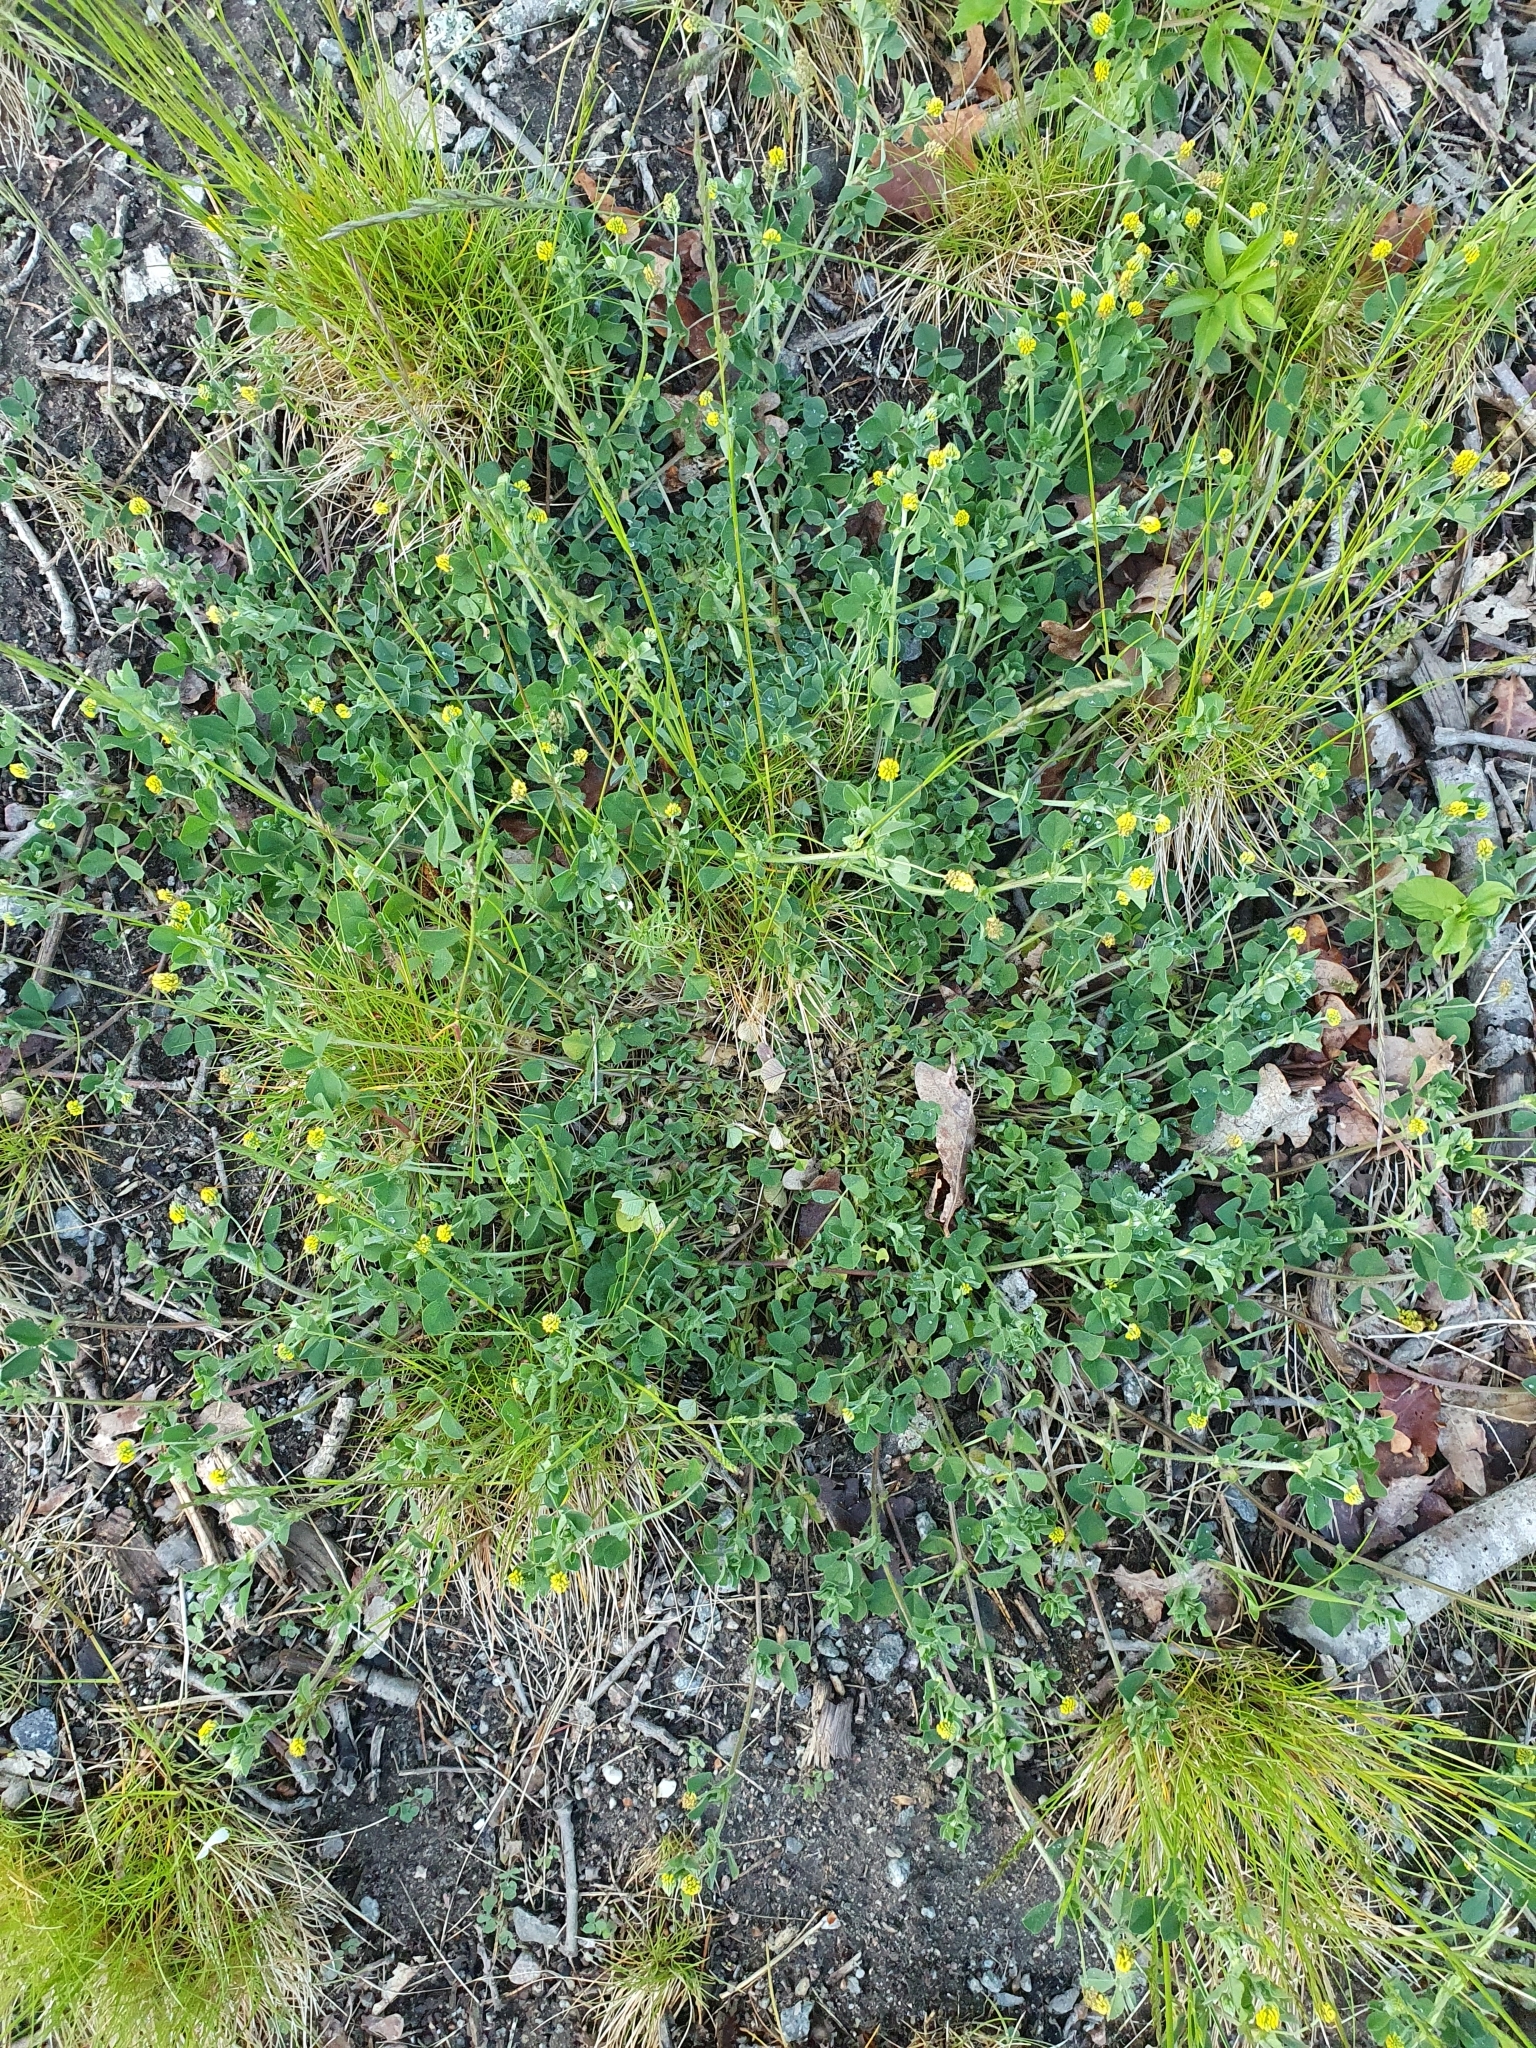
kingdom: Plantae
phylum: Tracheophyta
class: Magnoliopsida
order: Fabales
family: Fabaceae
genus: Medicago
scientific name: Medicago lupulina
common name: Black medick
